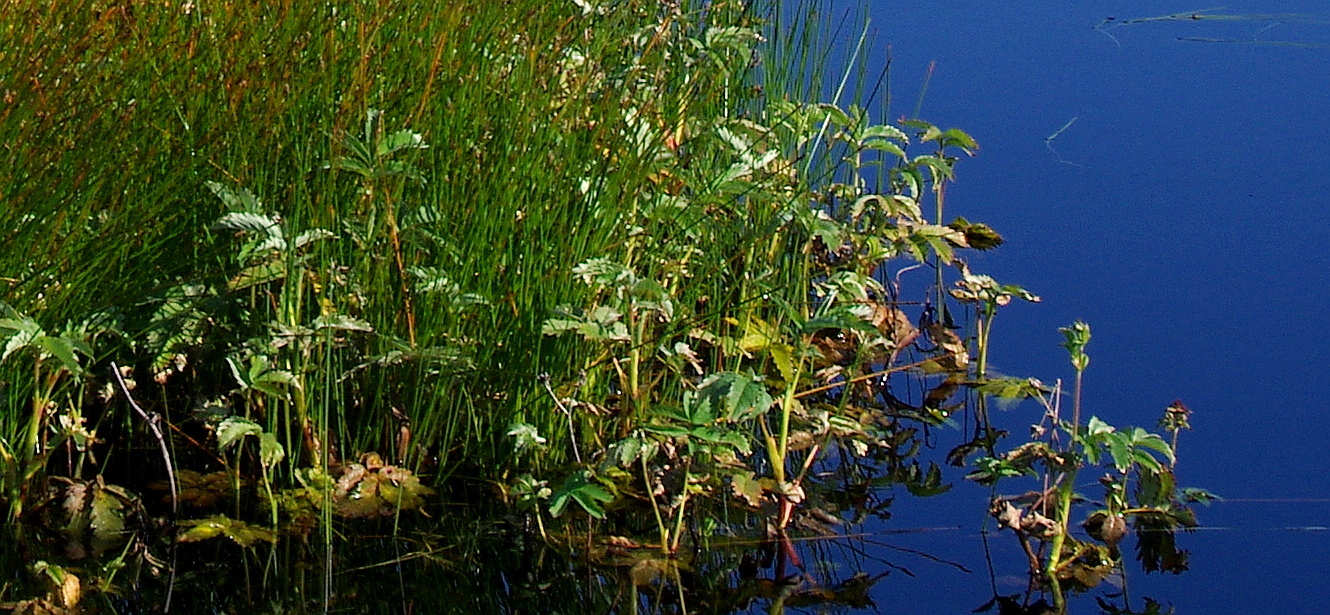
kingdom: Plantae
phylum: Tracheophyta
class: Magnoliopsida
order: Rosales
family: Rosaceae
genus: Comarum
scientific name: Comarum palustre
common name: Marsh cinquefoil
